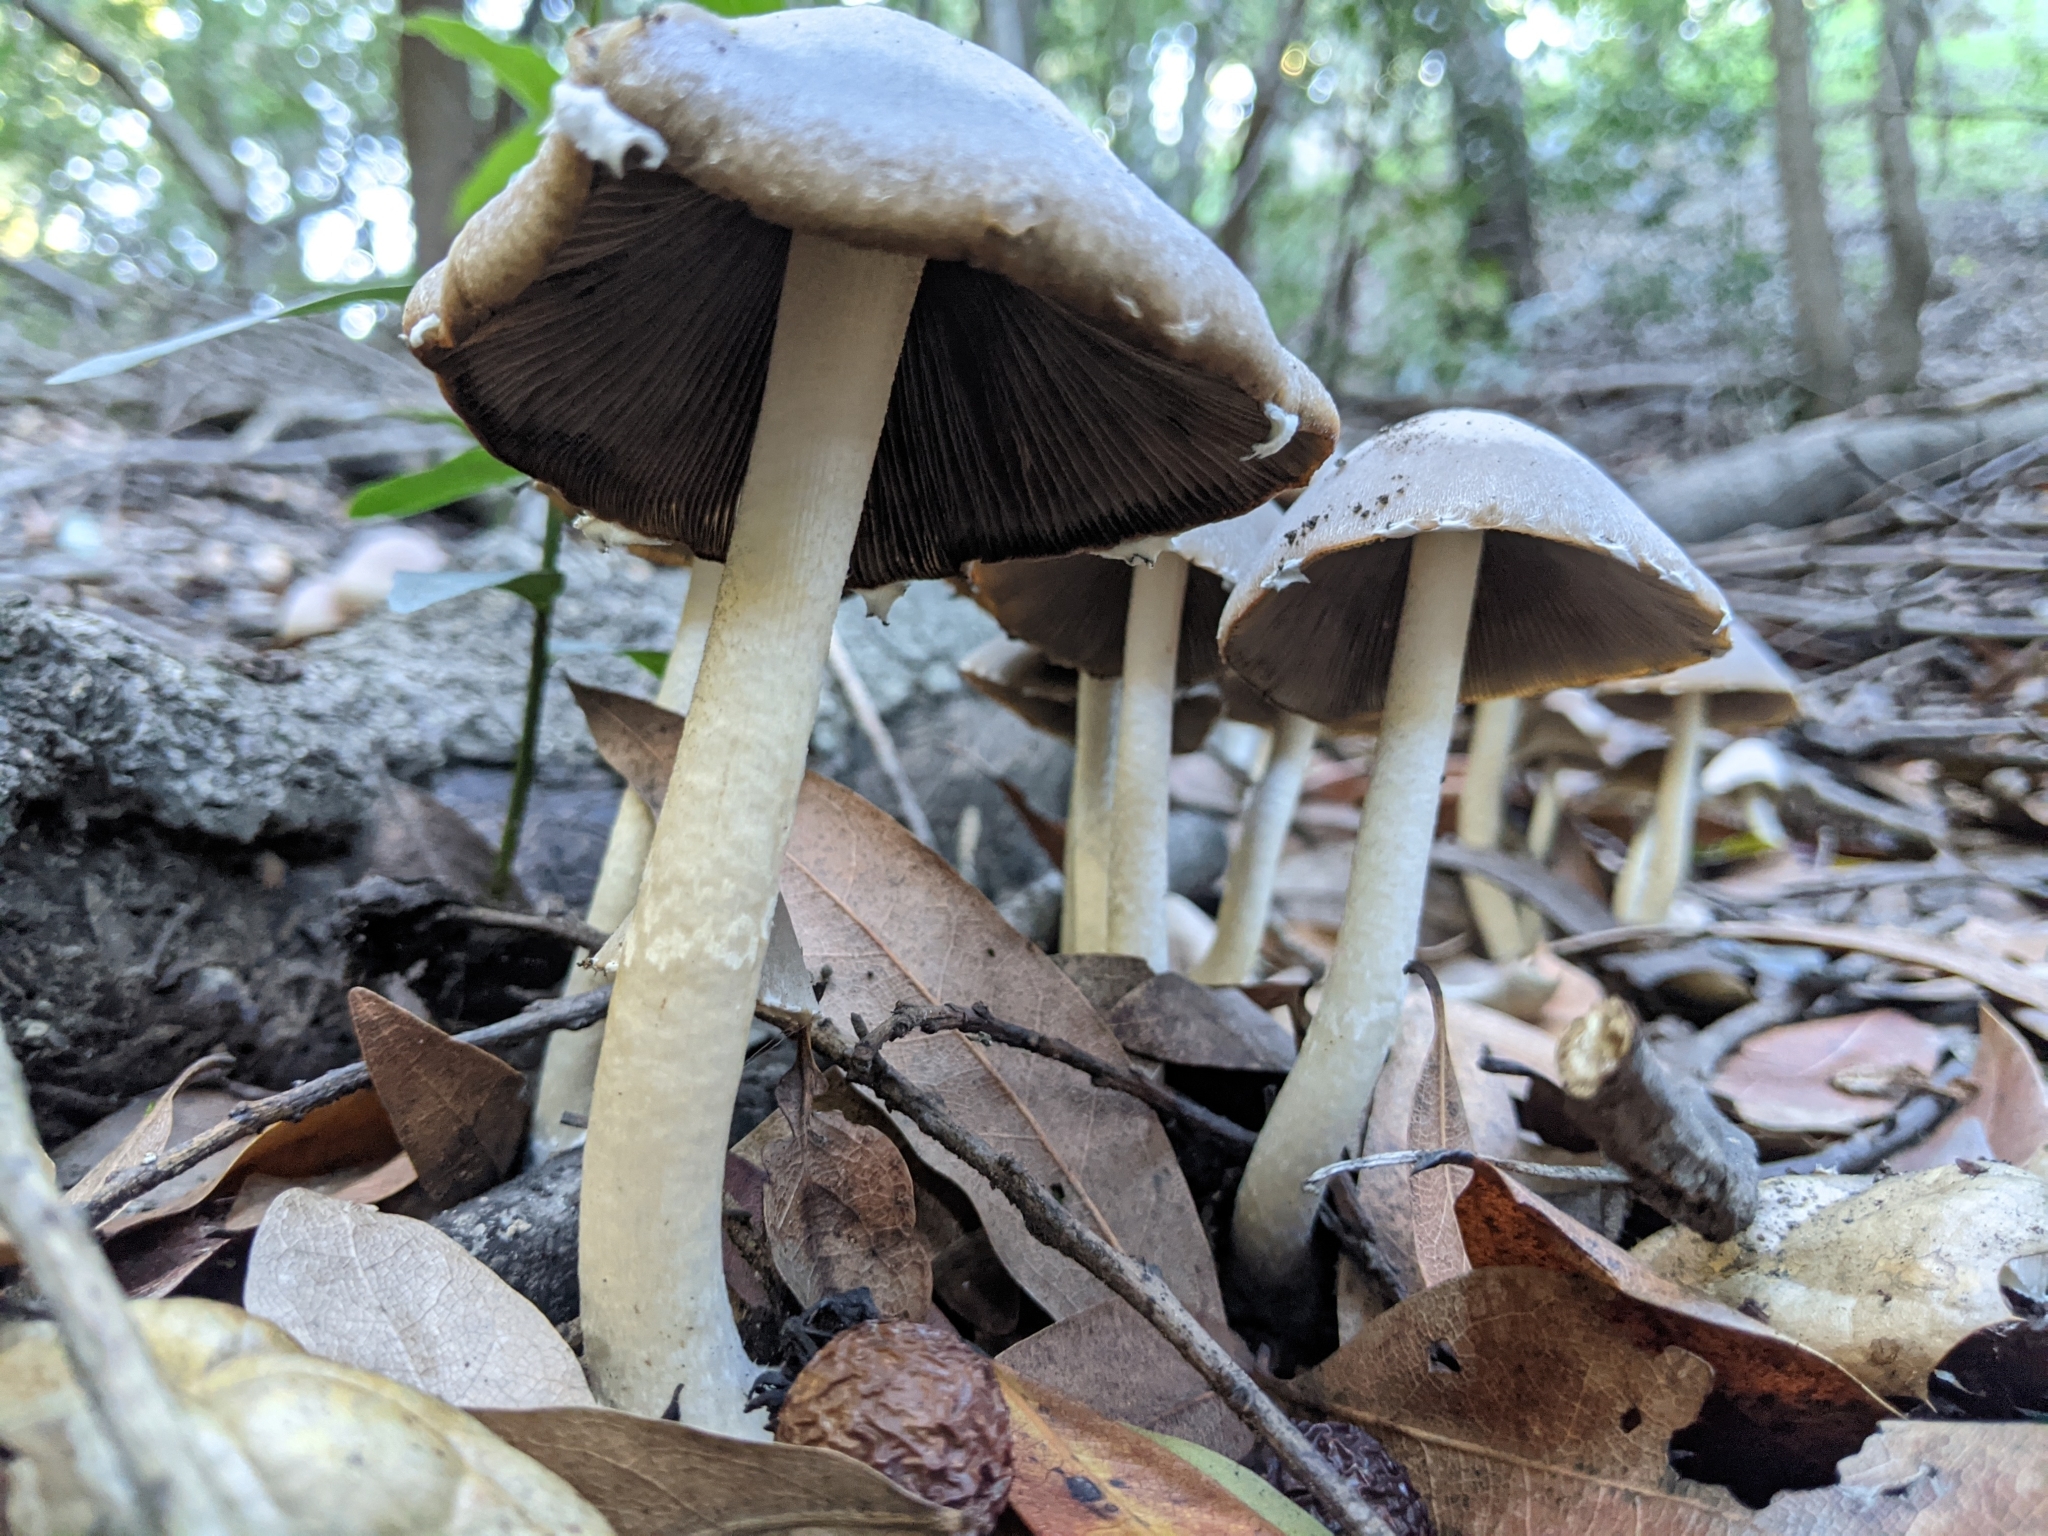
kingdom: Fungi
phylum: Basidiomycota
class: Agaricomycetes
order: Agaricales
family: Psathyrellaceae
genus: Psathyrella
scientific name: Psathyrella longipes
